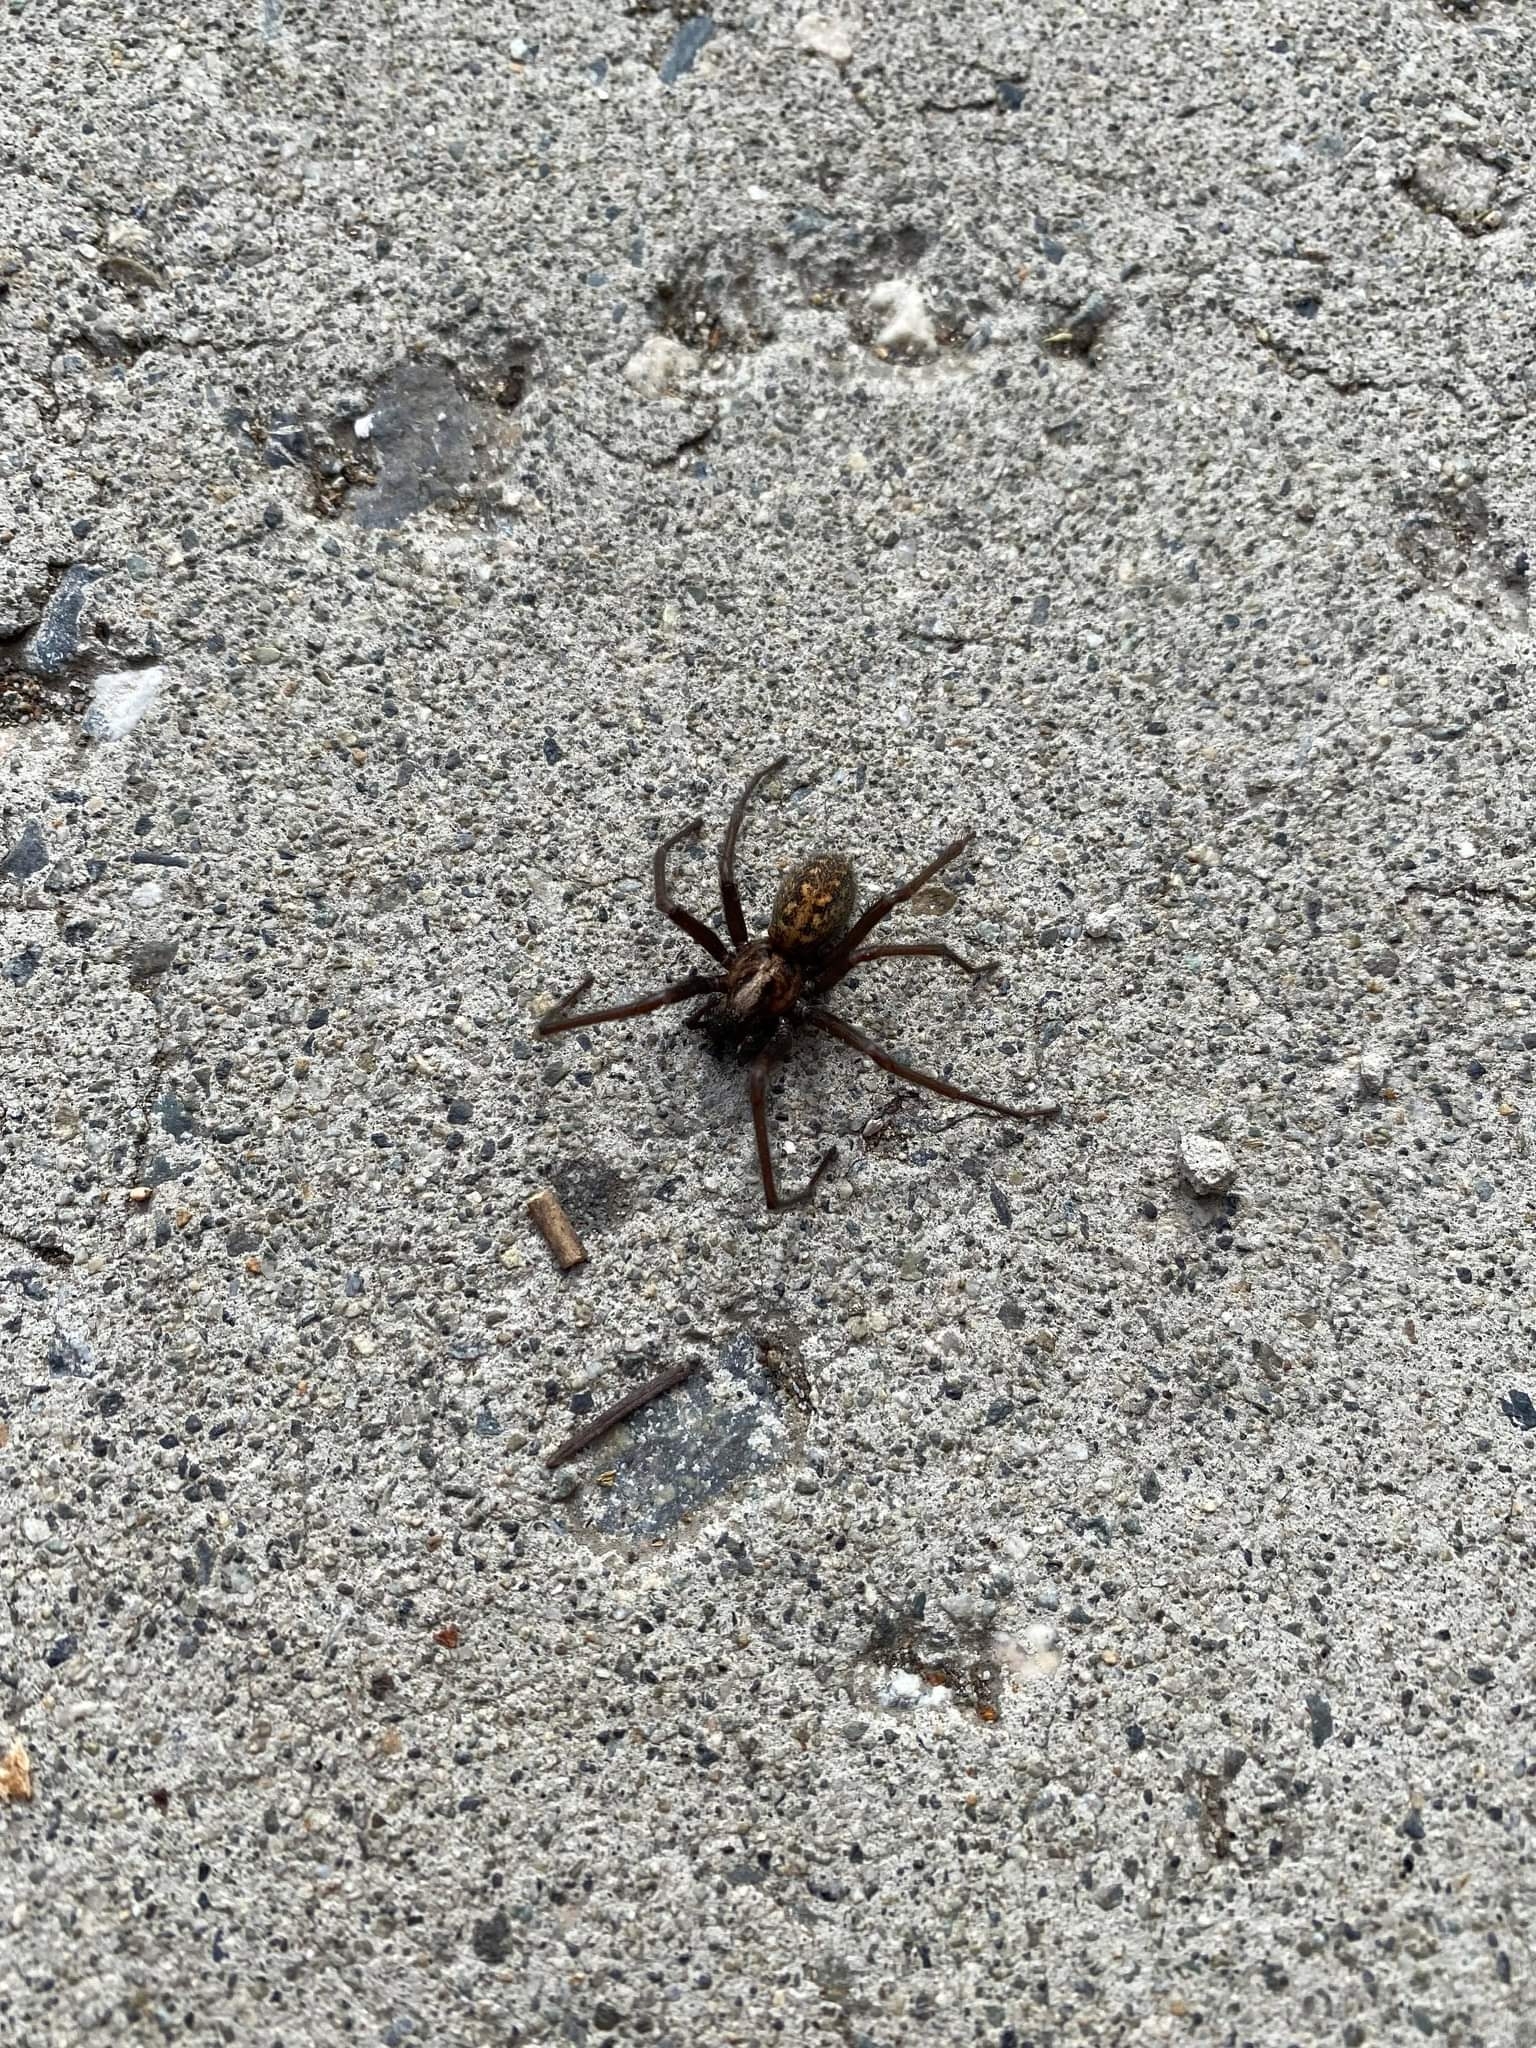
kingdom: Animalia
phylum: Arthropoda
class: Arachnida
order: Araneae
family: Agelenidae
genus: Eratigena
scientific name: Eratigena duellica
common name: Giant house spider
